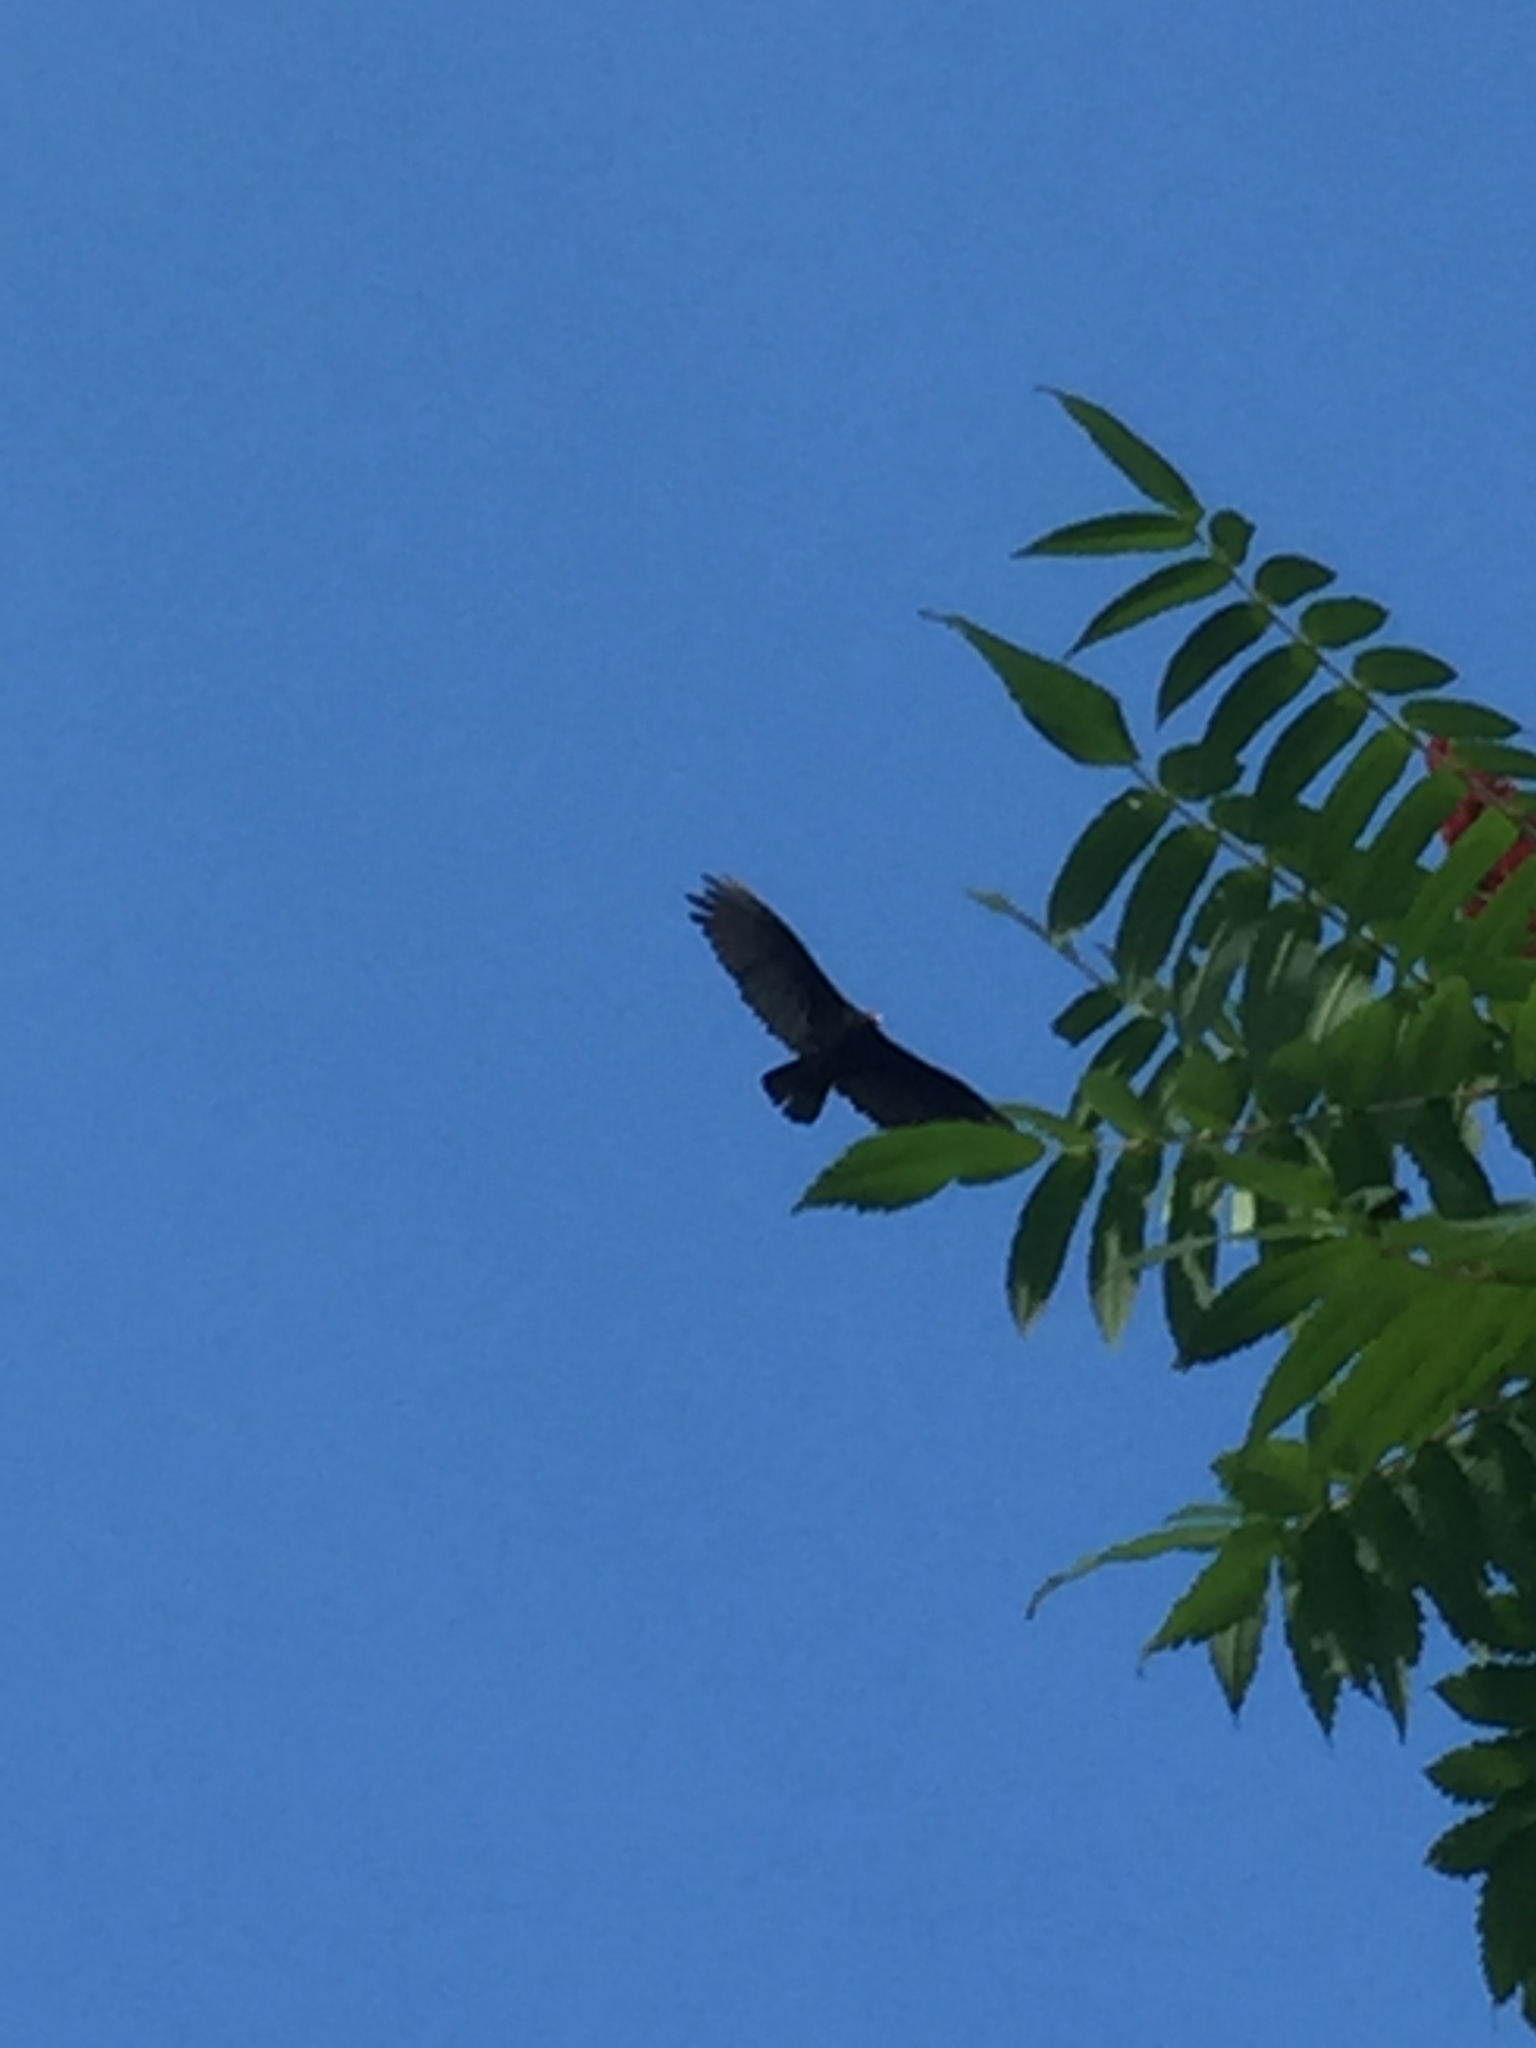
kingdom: Animalia
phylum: Chordata
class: Aves
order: Accipitriformes
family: Cathartidae
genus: Cathartes
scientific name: Cathartes aura
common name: Turkey vulture
